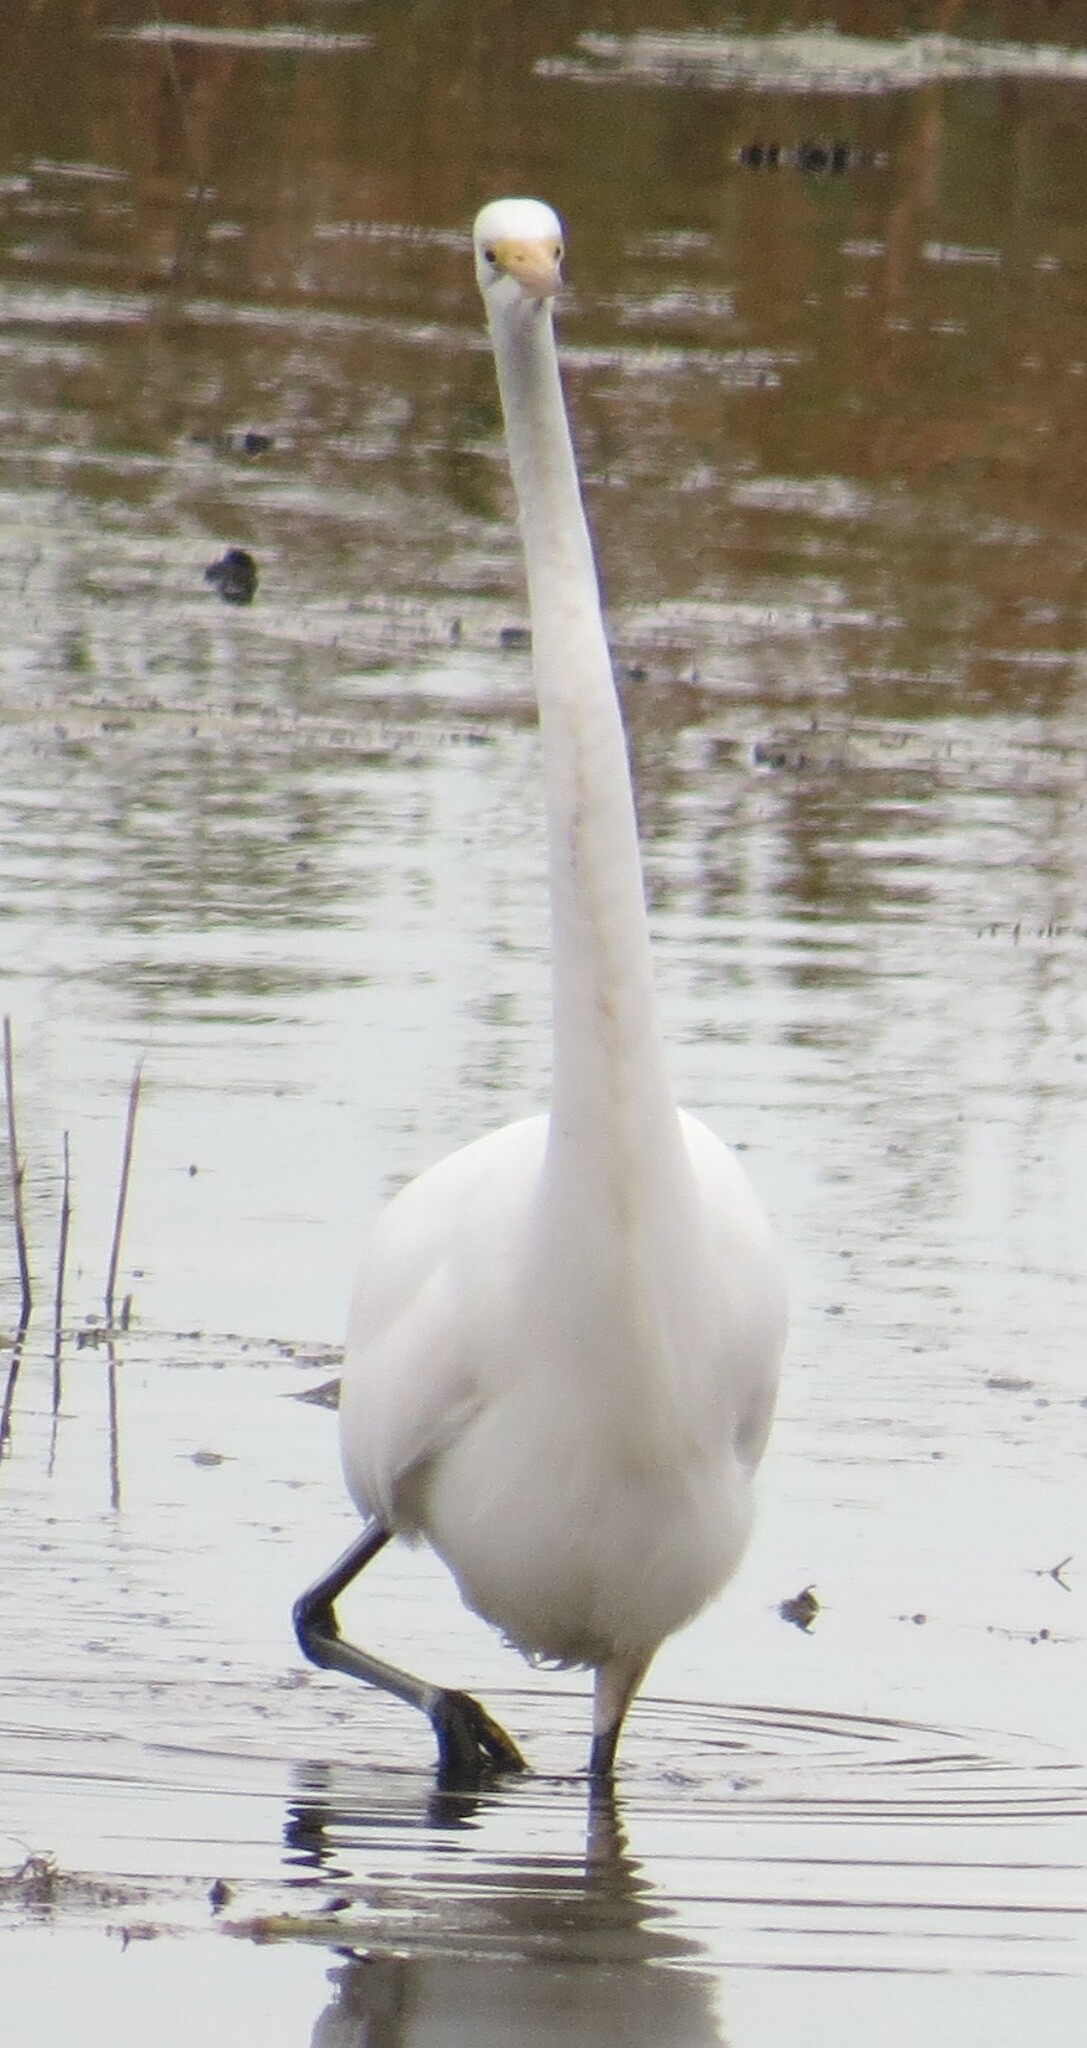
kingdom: Animalia
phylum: Chordata
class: Aves
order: Pelecaniformes
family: Ardeidae
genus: Ardea
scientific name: Ardea alba
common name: Great egret
